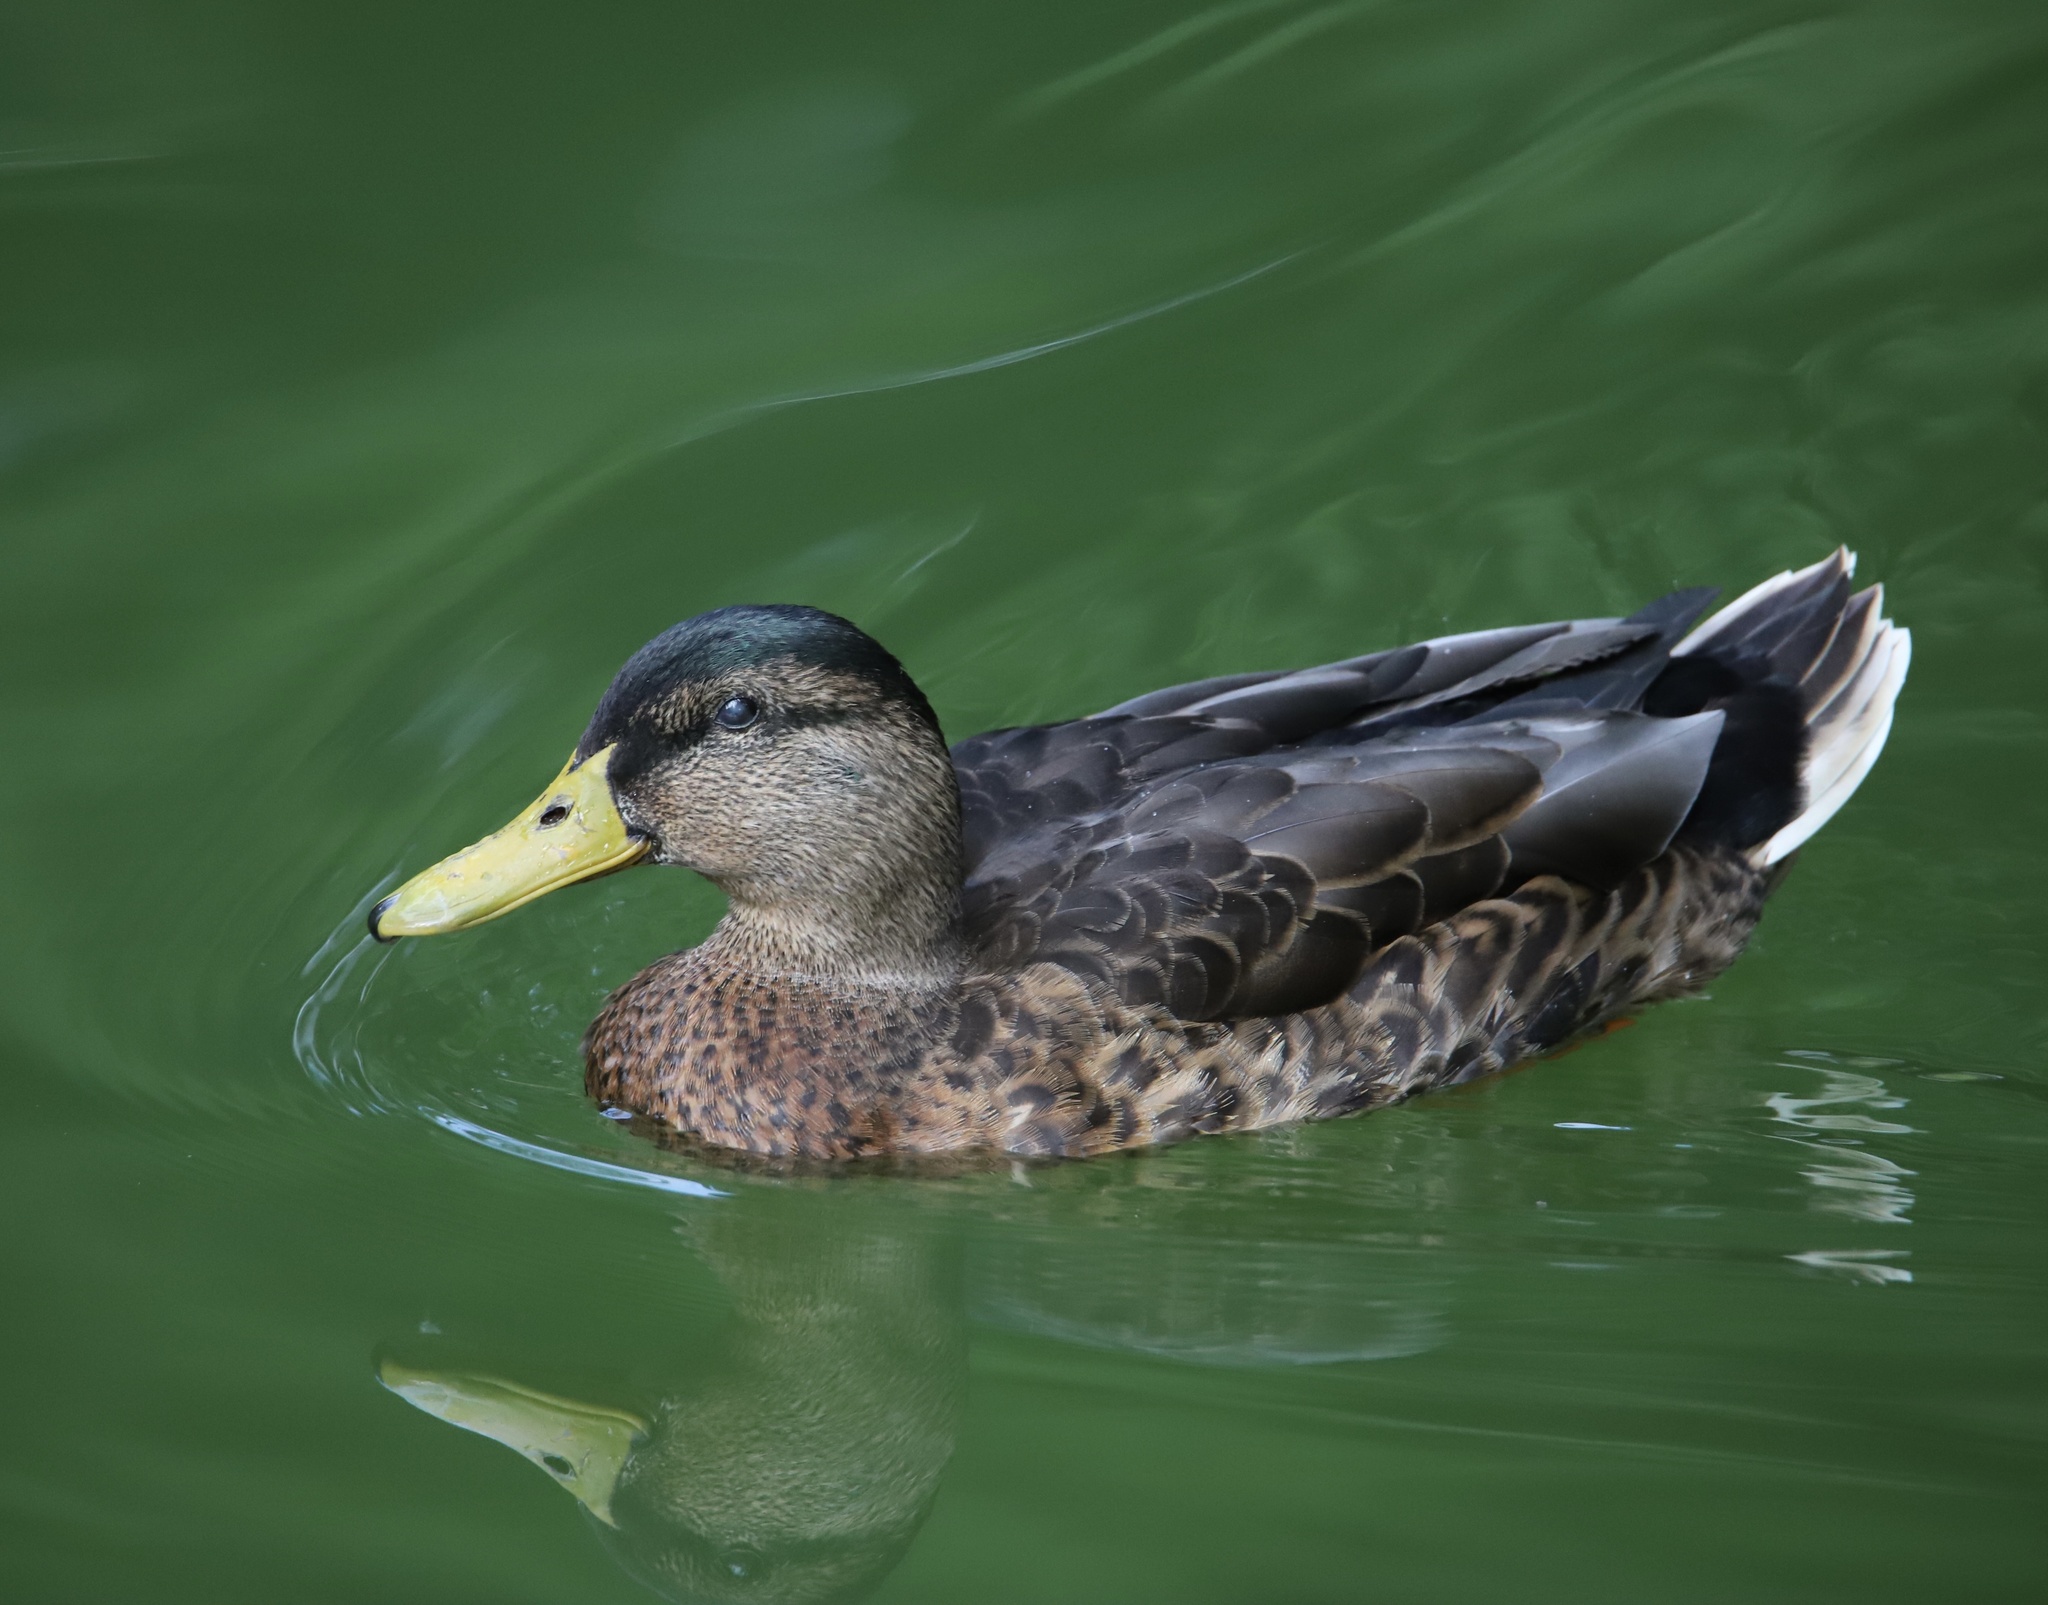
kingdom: Animalia
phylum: Chordata
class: Aves
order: Anseriformes
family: Anatidae
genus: Anas
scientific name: Anas platyrhynchos
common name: Mallard
